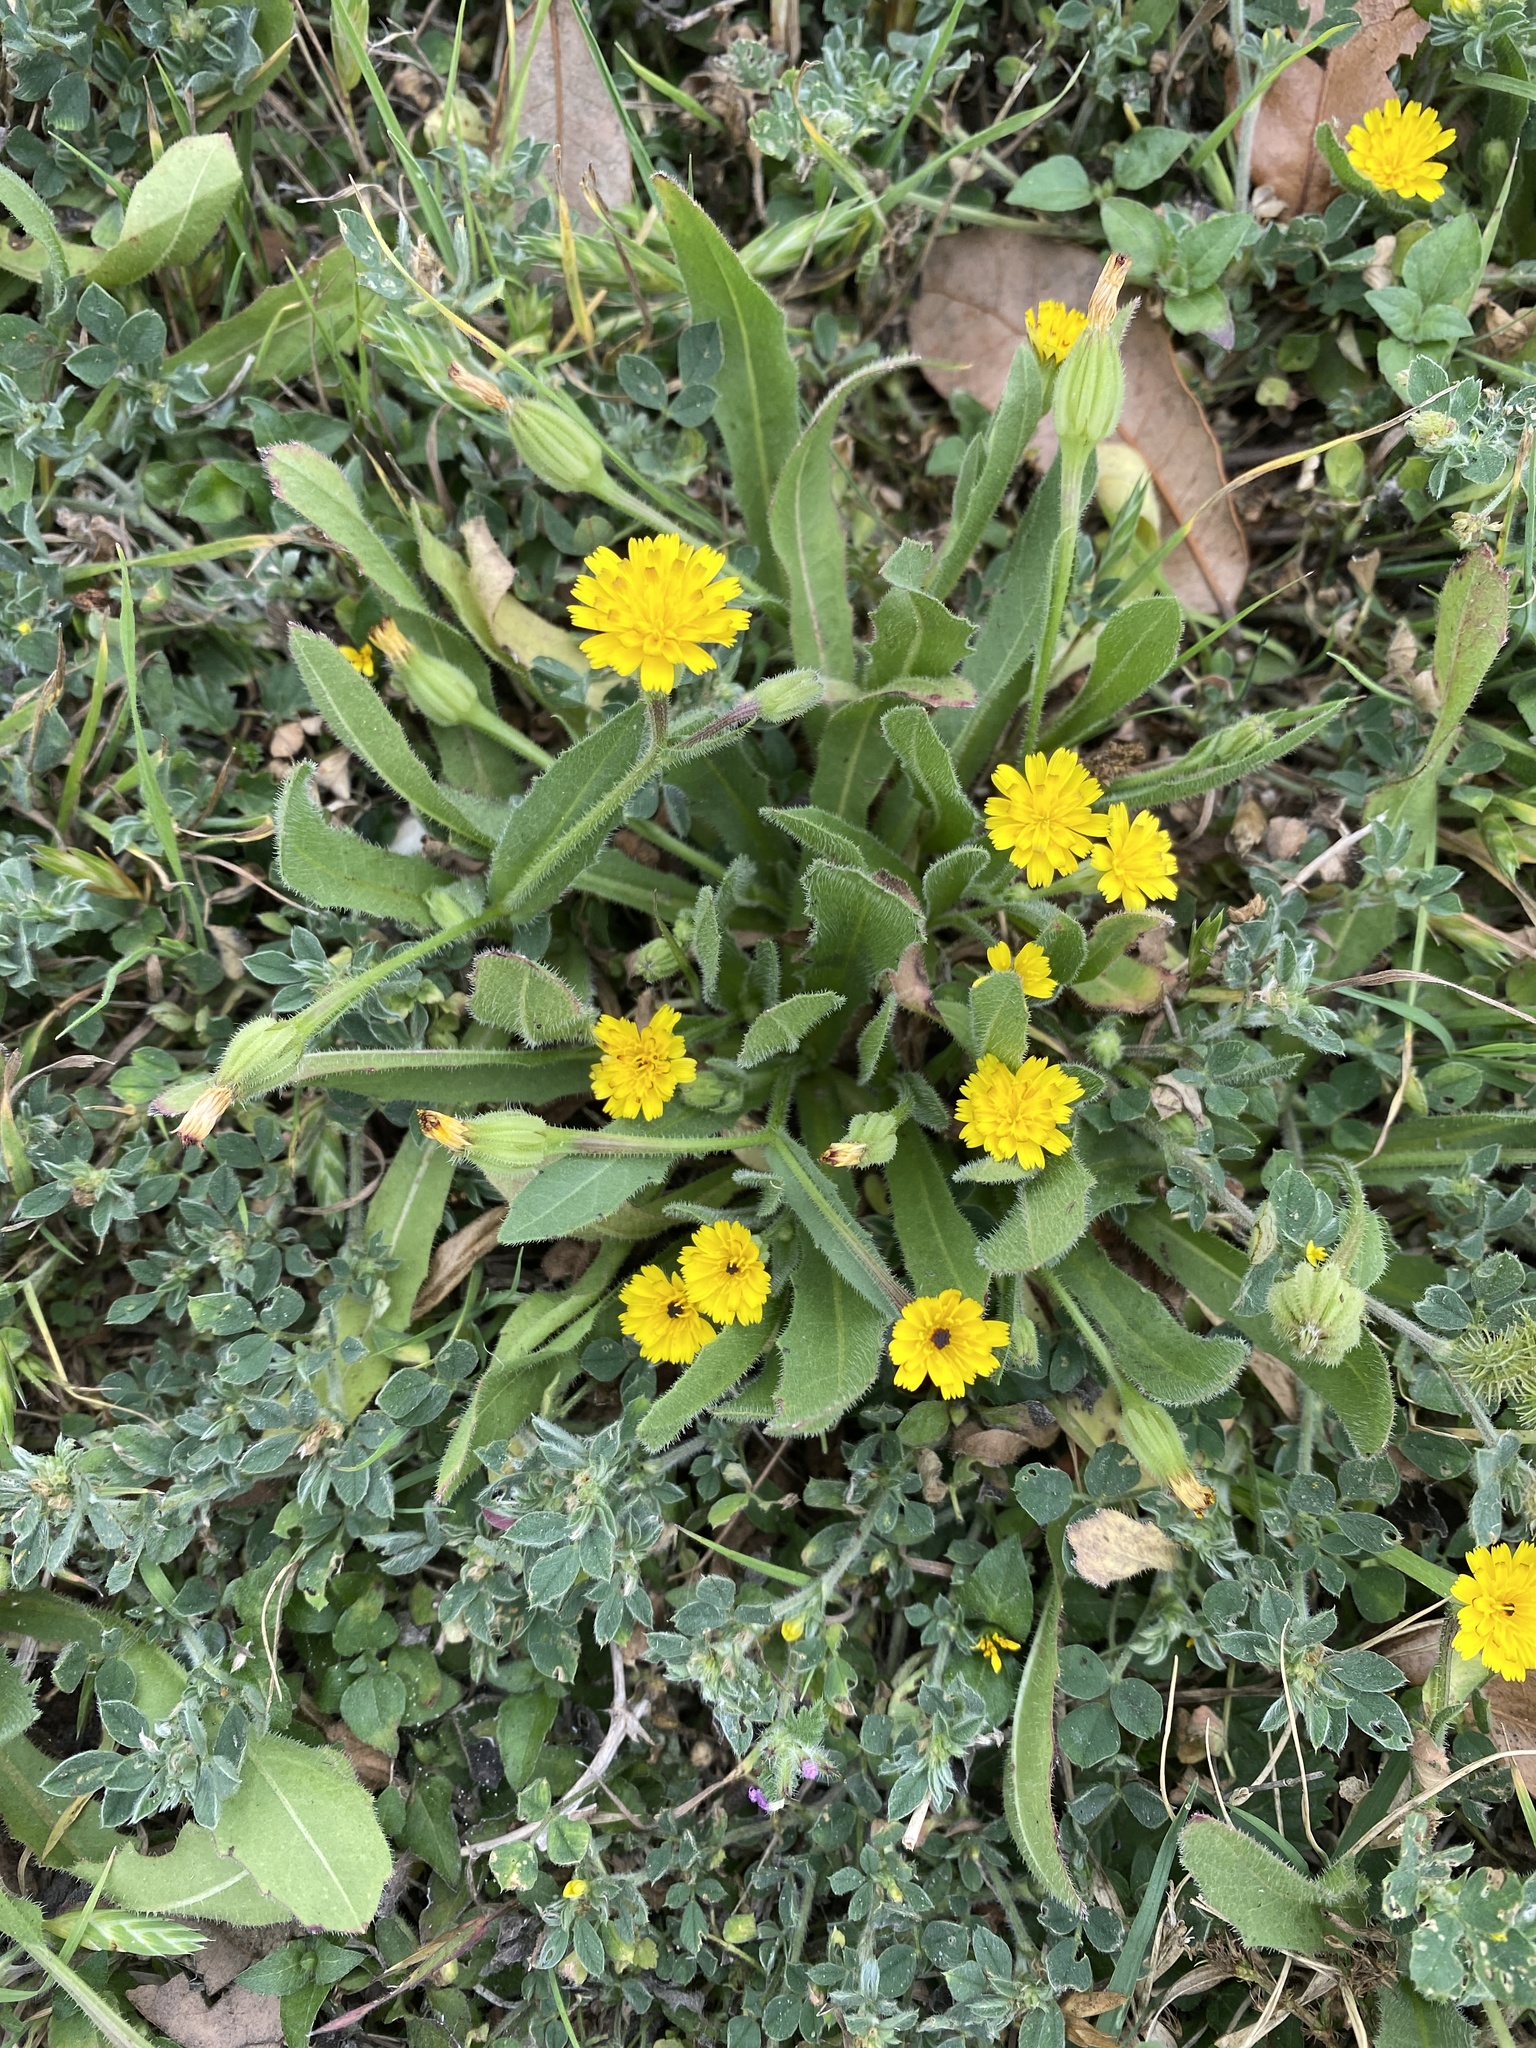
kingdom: Plantae
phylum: Tracheophyta
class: Magnoliopsida
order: Asterales
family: Asteraceae
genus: Hedypnois
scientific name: Hedypnois rhagadioloides
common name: Cretan weed
